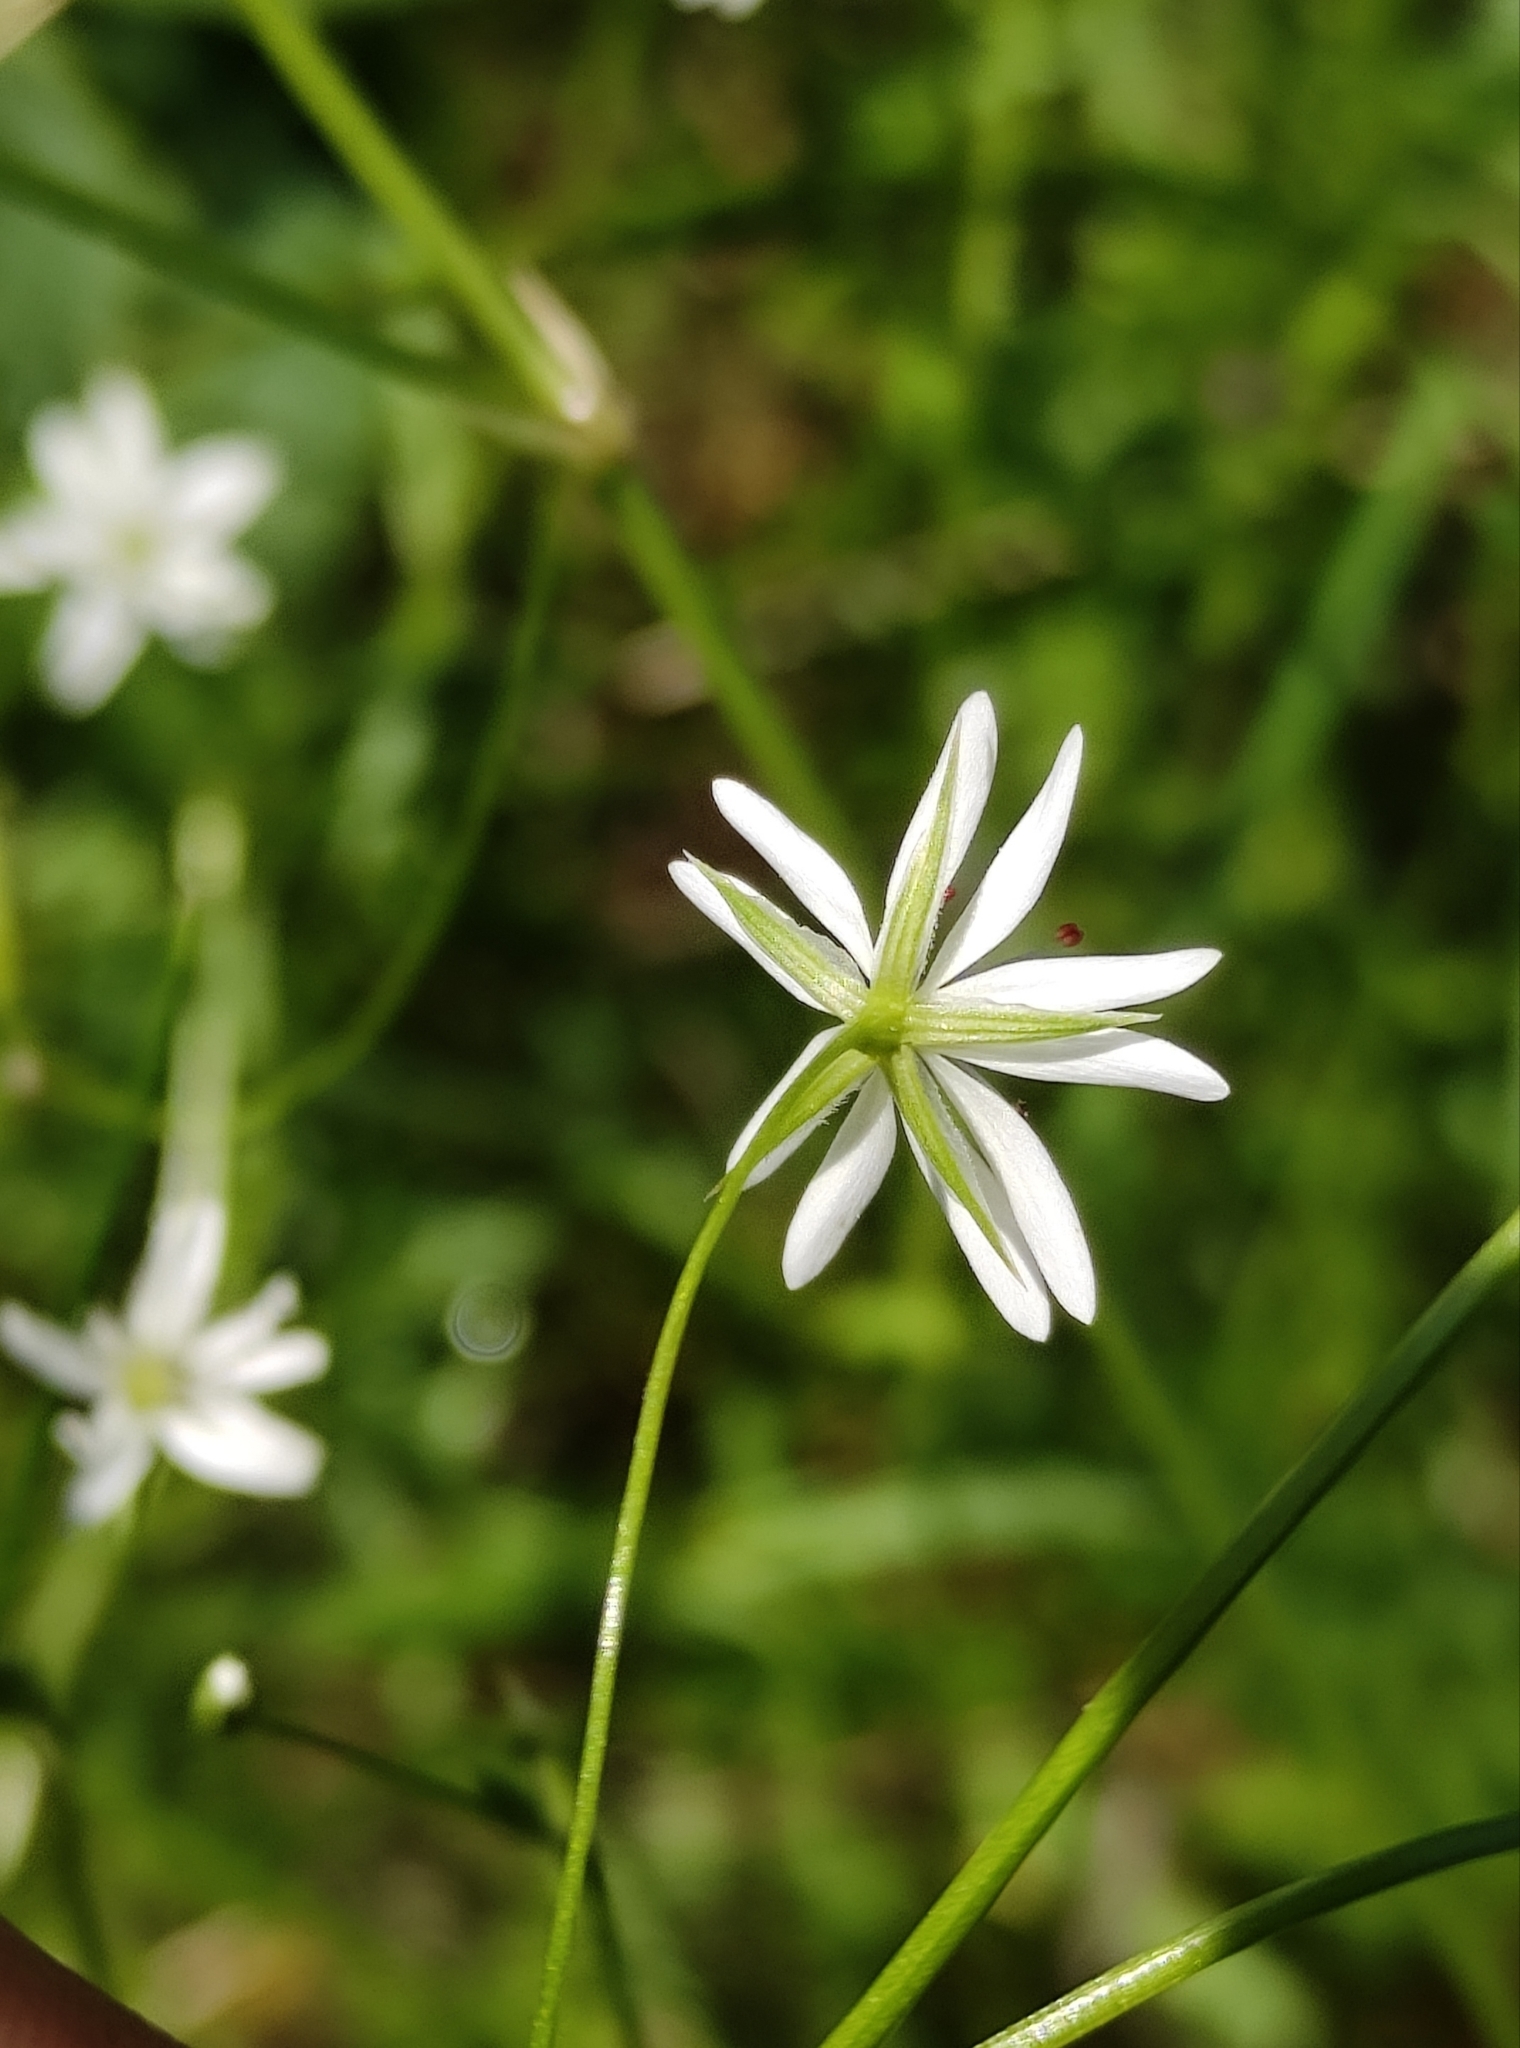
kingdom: Plantae
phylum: Tracheophyta
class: Magnoliopsida
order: Caryophyllales
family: Caryophyllaceae
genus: Stellaria
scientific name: Stellaria graminea
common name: Grass-like starwort
